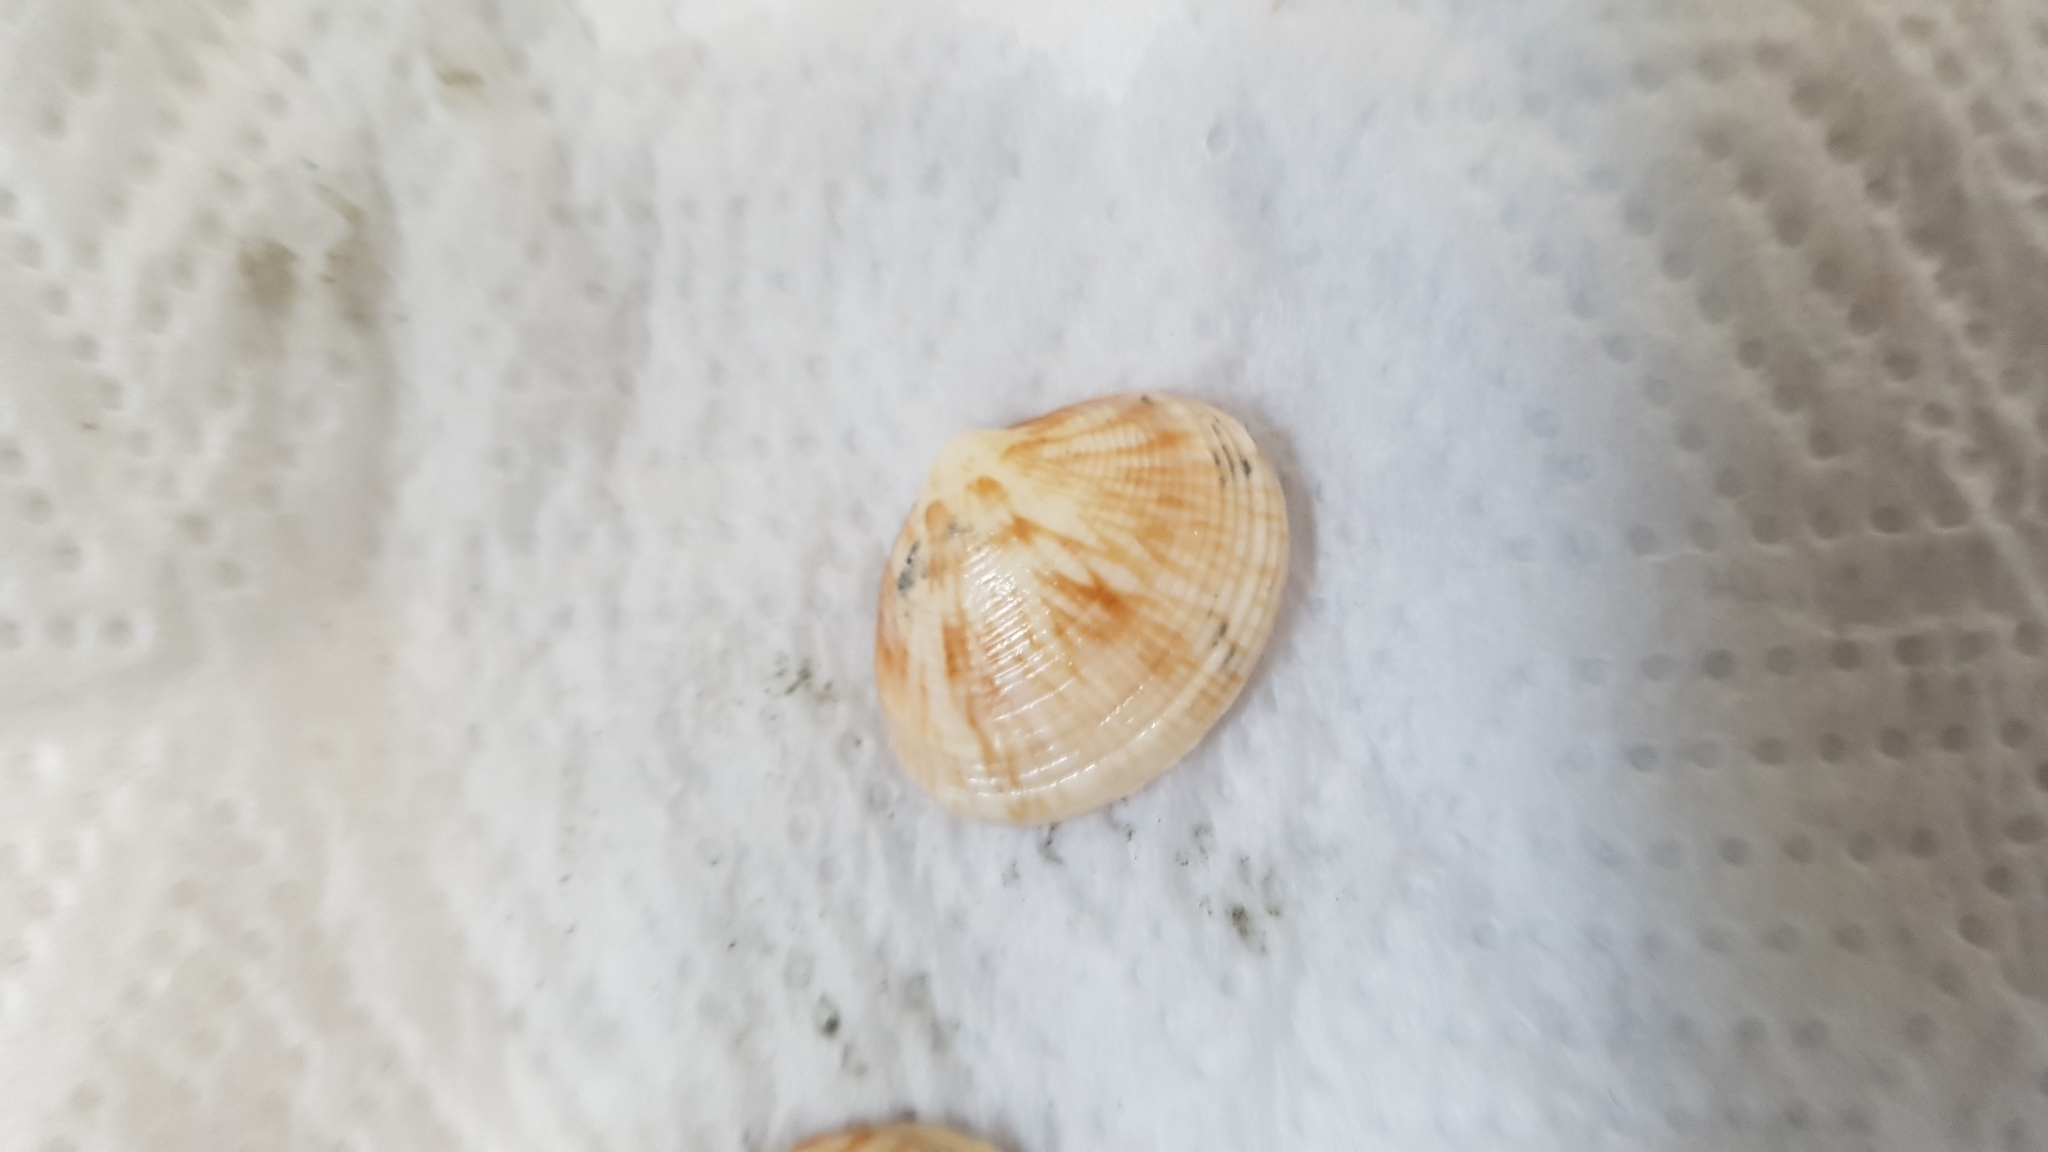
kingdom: Animalia
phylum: Mollusca
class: Bivalvia
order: Venerida
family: Veneridae
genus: Tawera
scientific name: Tawera spissa
